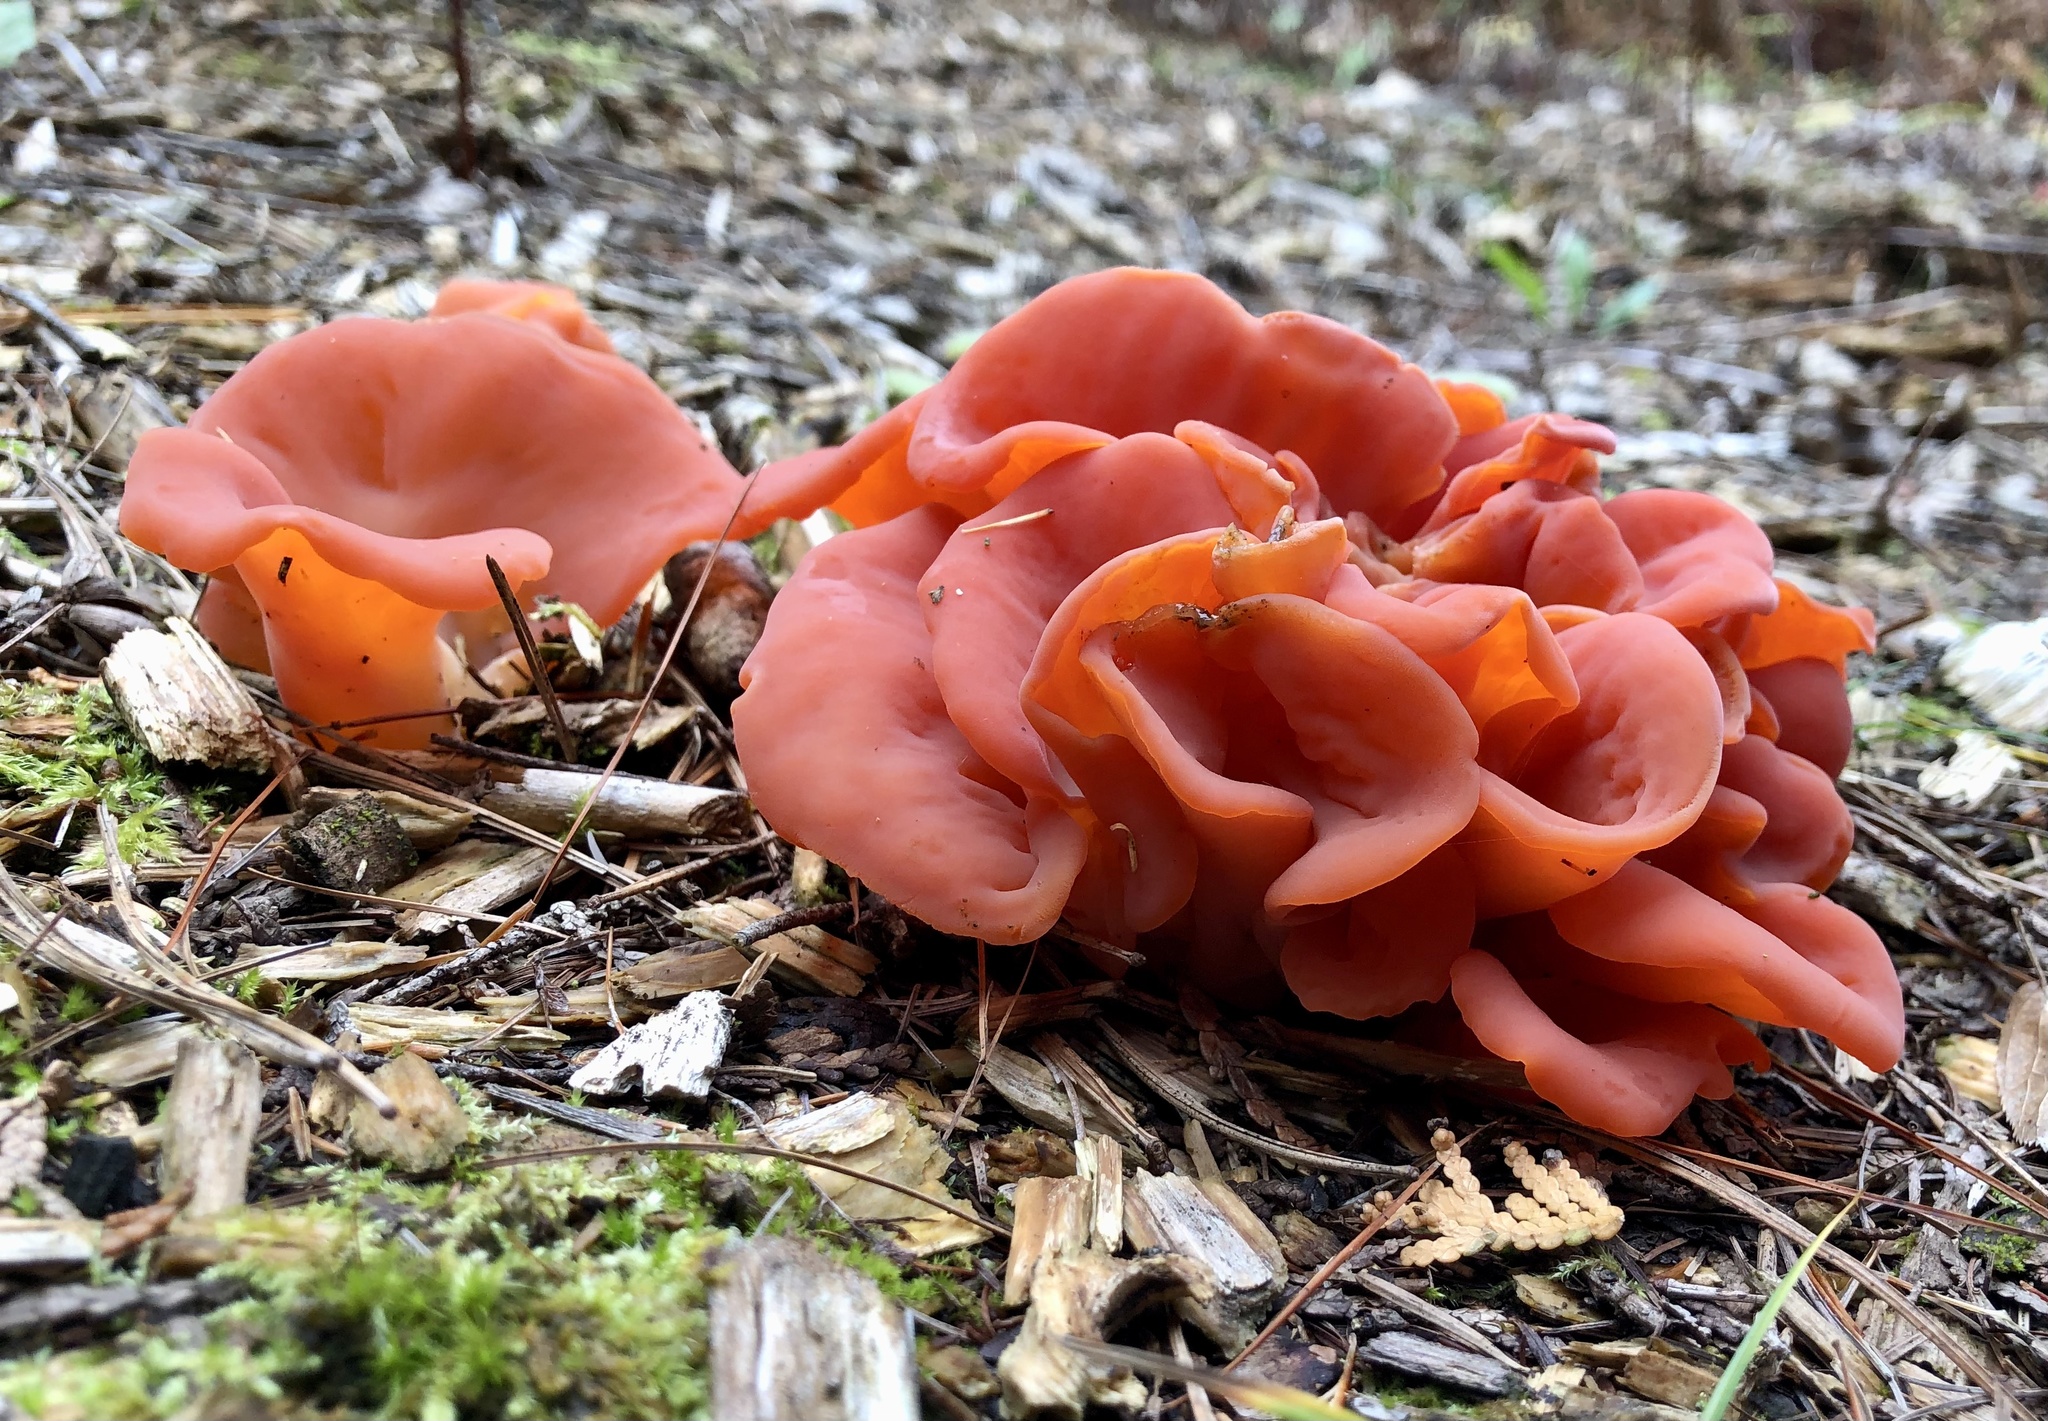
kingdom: Fungi
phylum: Basidiomycota
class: Agaricomycetes
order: Auriculariales
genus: Guepinia
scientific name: Guepinia helvelloides
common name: Salmon salad
